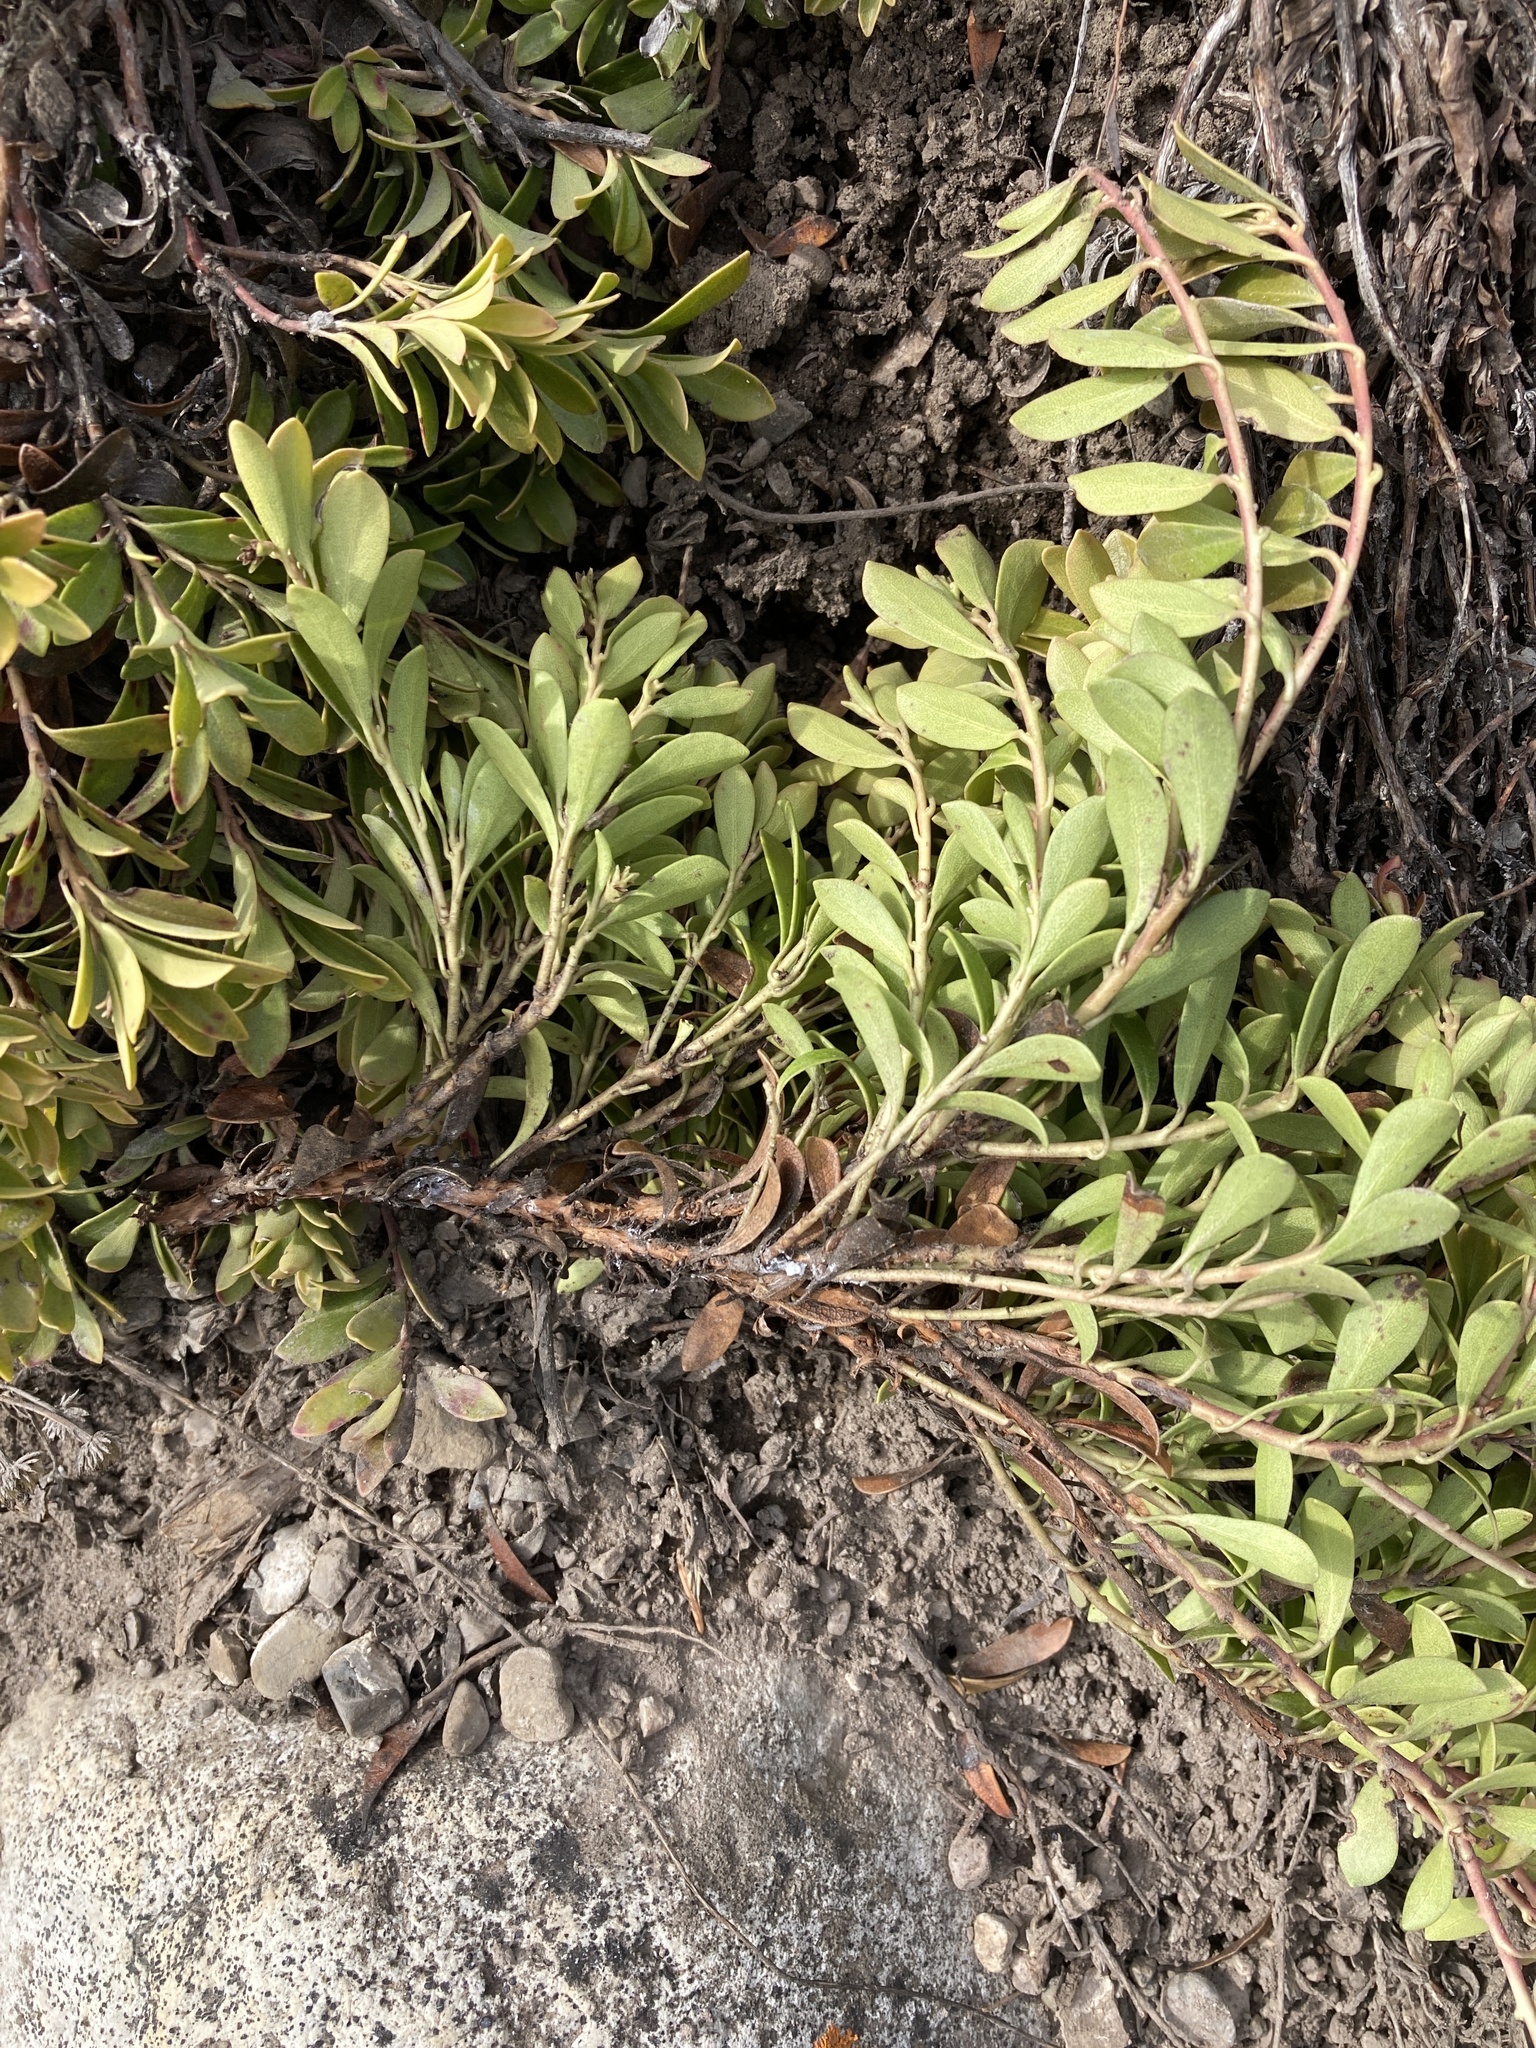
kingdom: Plantae
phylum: Tracheophyta
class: Magnoliopsida
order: Ericales
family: Ericaceae
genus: Arctostaphylos
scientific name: Arctostaphylos uva-ursi
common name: Bearberry
